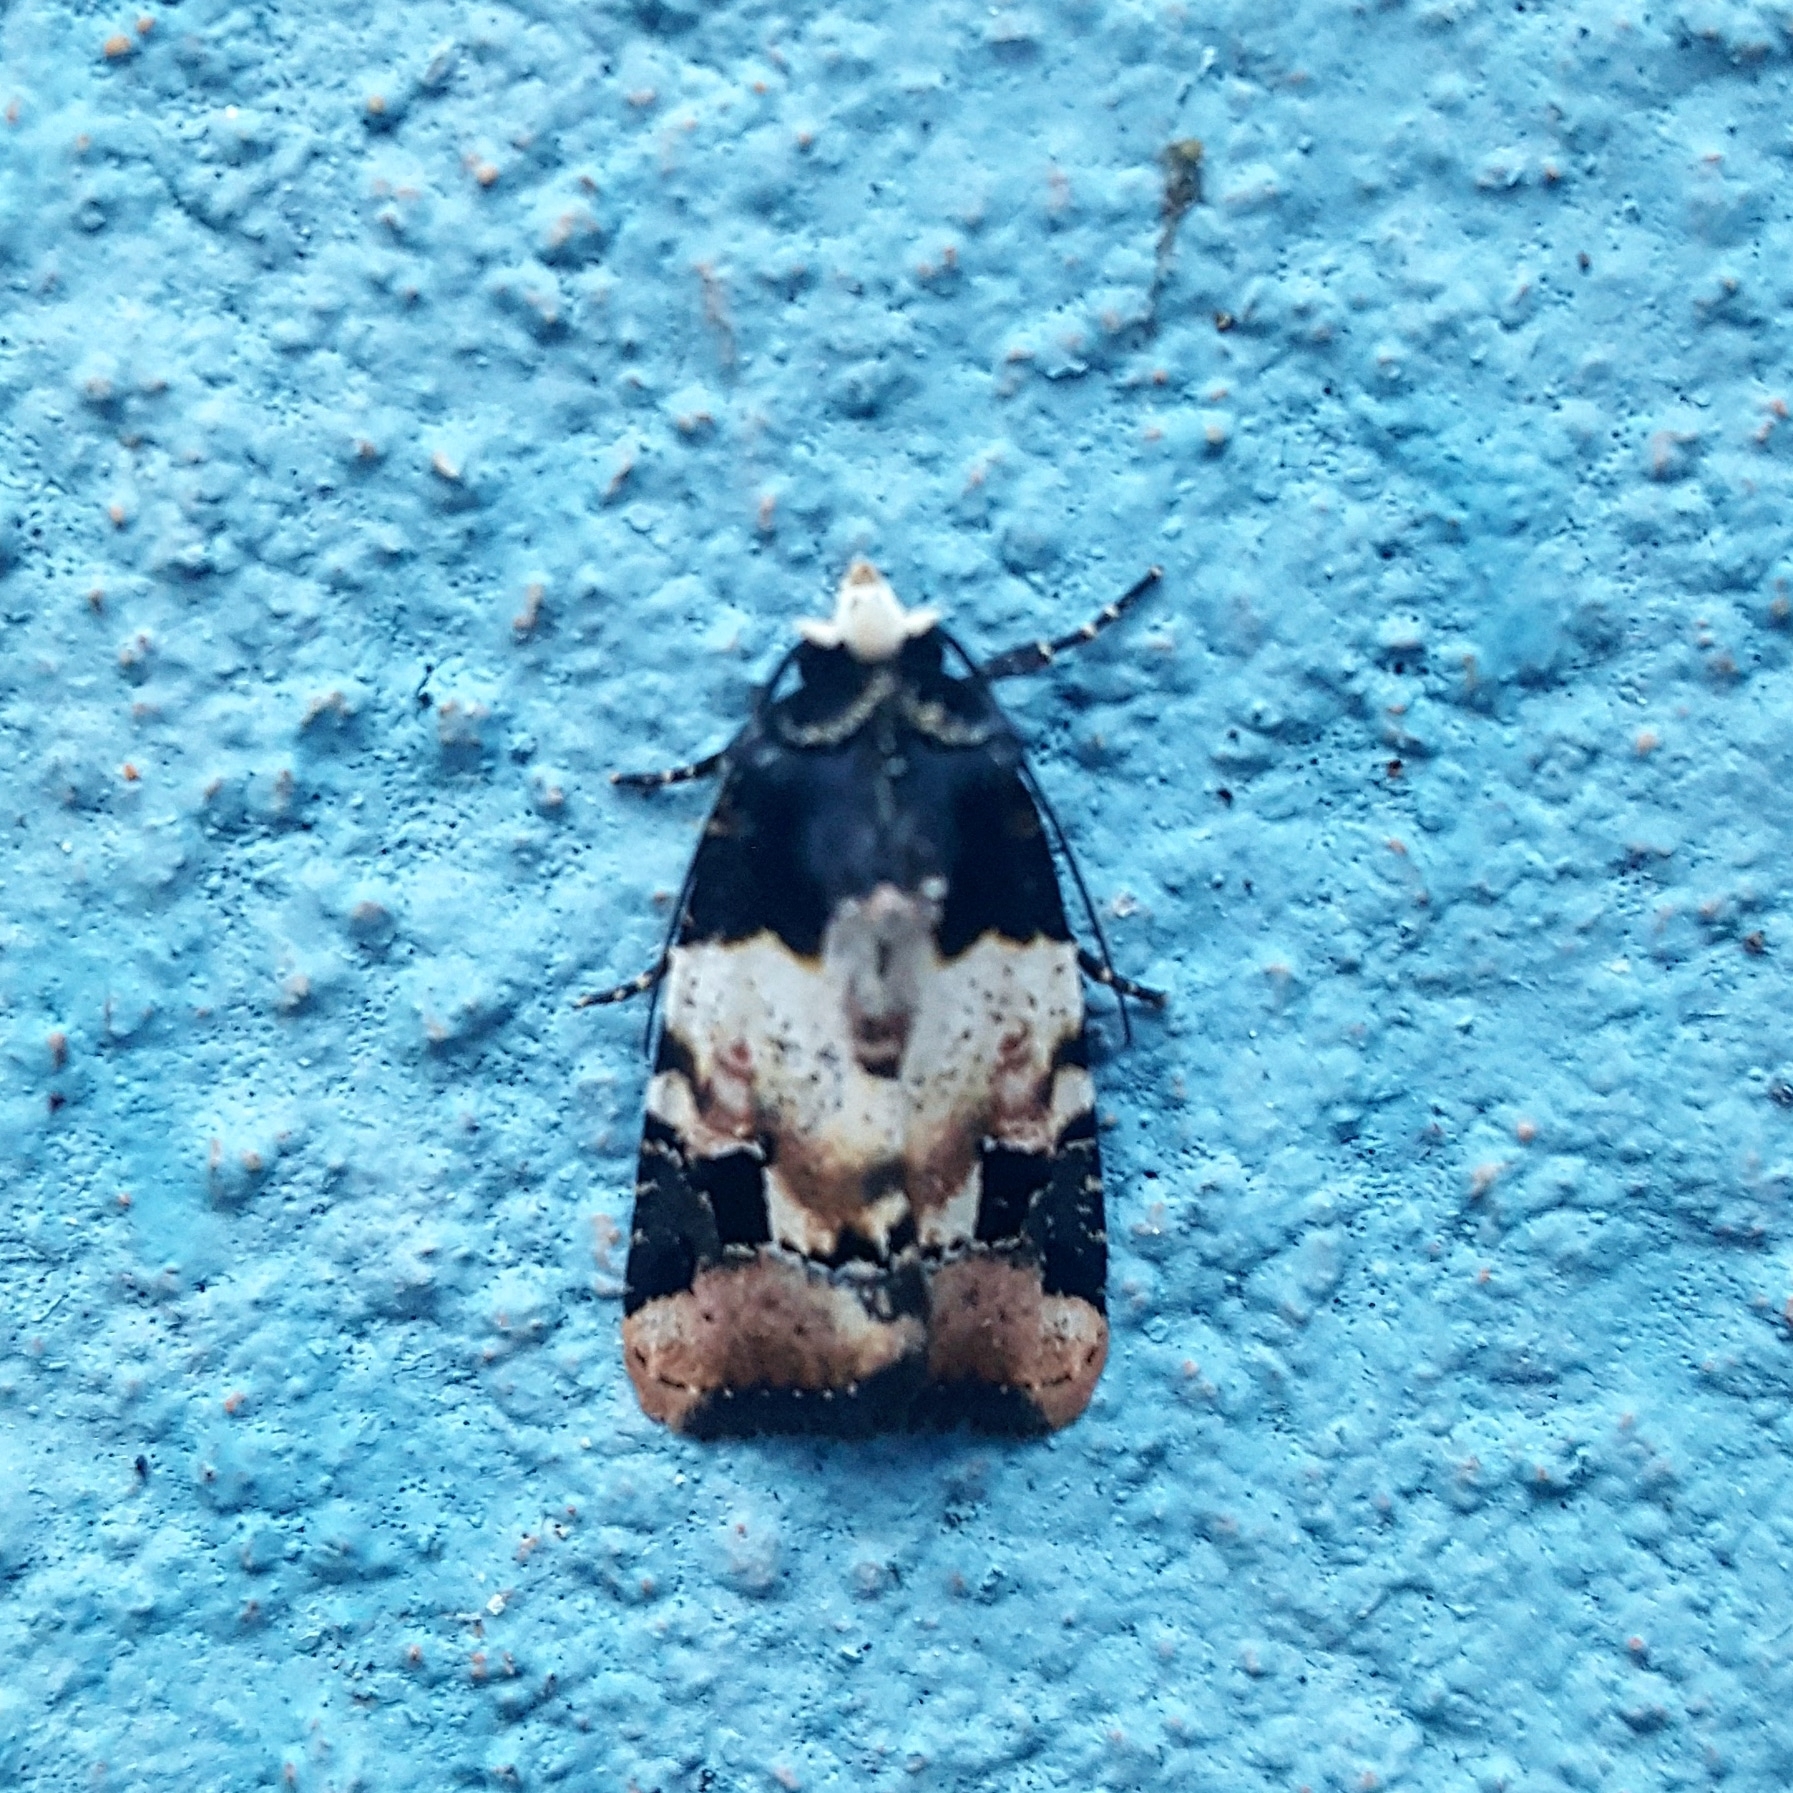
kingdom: Animalia
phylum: Arthropoda
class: Insecta
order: Lepidoptera
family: Noctuidae
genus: Bryolymnia
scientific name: Bryolymnia bicon
